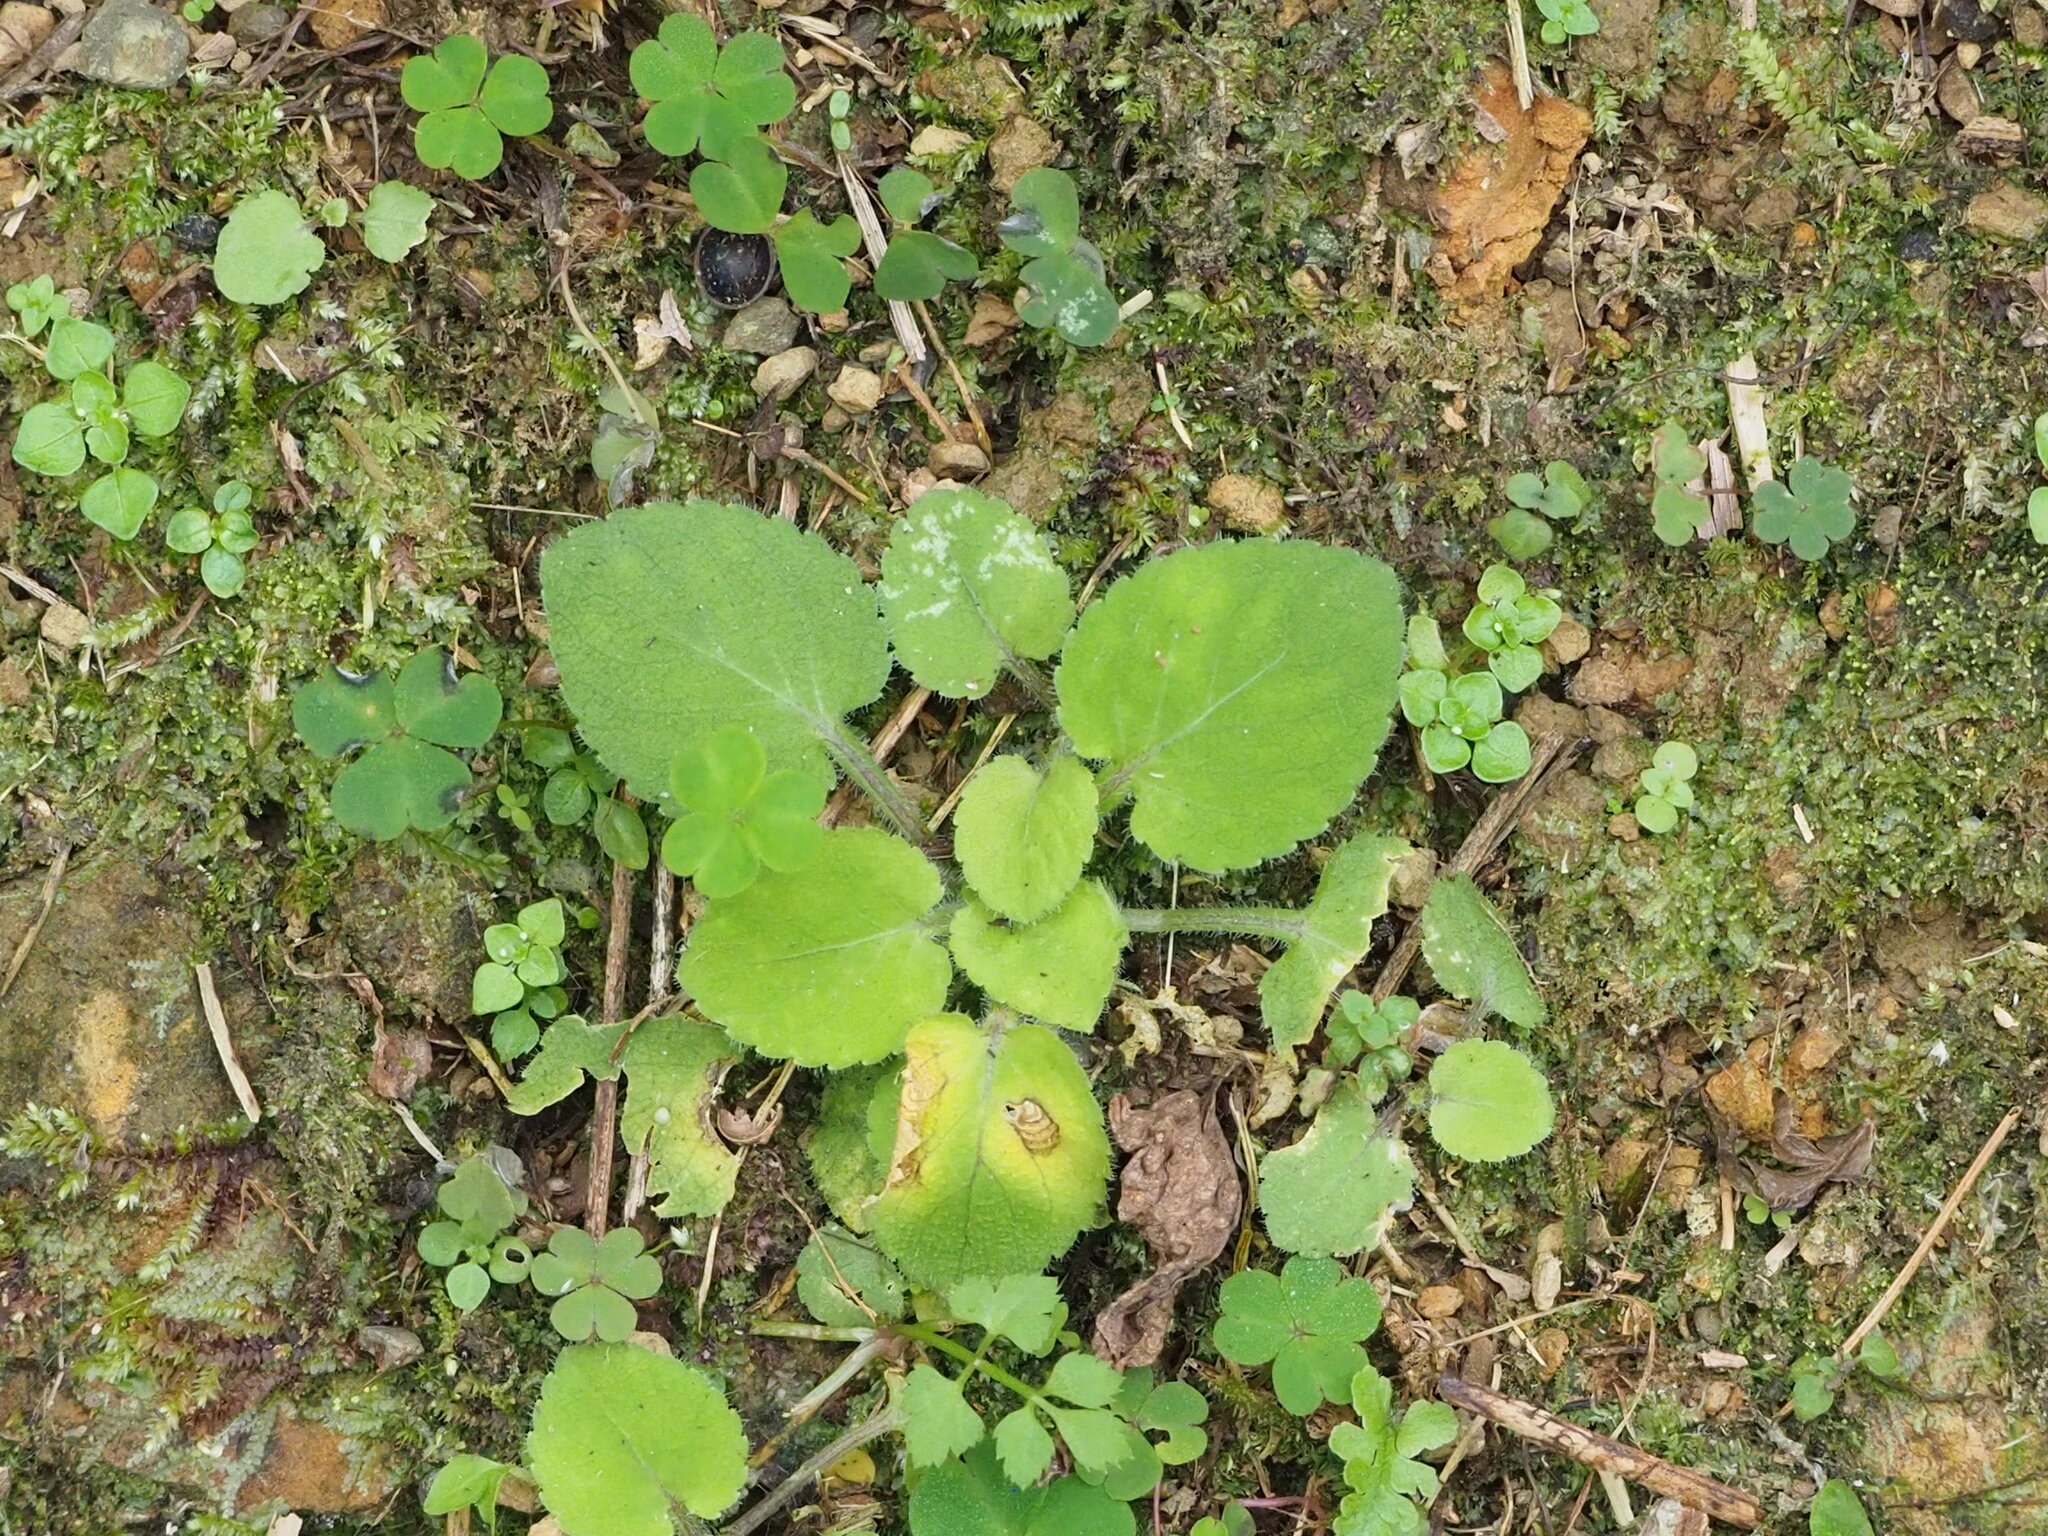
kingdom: Plantae
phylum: Tracheophyta
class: Magnoliopsida
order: Malpighiales
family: Violaceae
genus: Viola
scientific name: Viola diffusa
